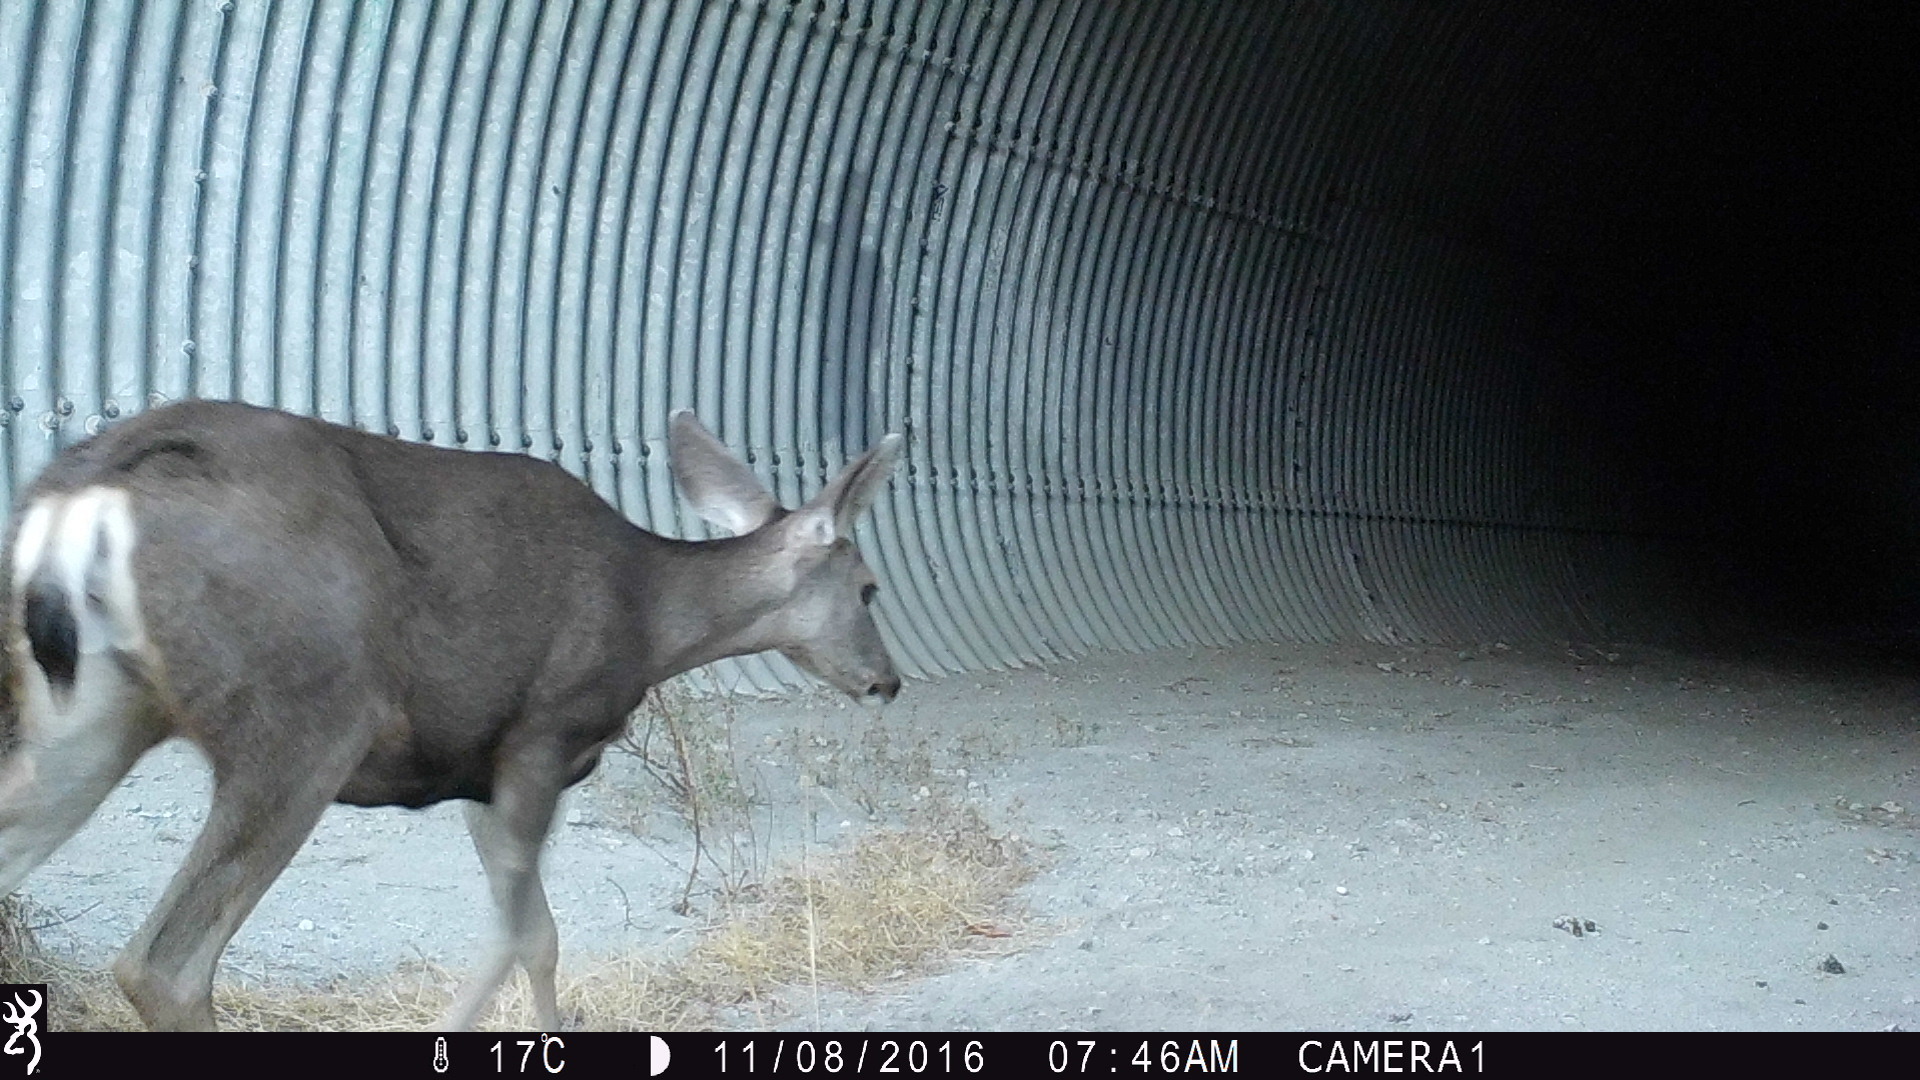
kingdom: Animalia
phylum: Chordata
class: Mammalia
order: Artiodactyla
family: Cervidae
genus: Odocoileus
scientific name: Odocoileus hemionus
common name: Mule deer
